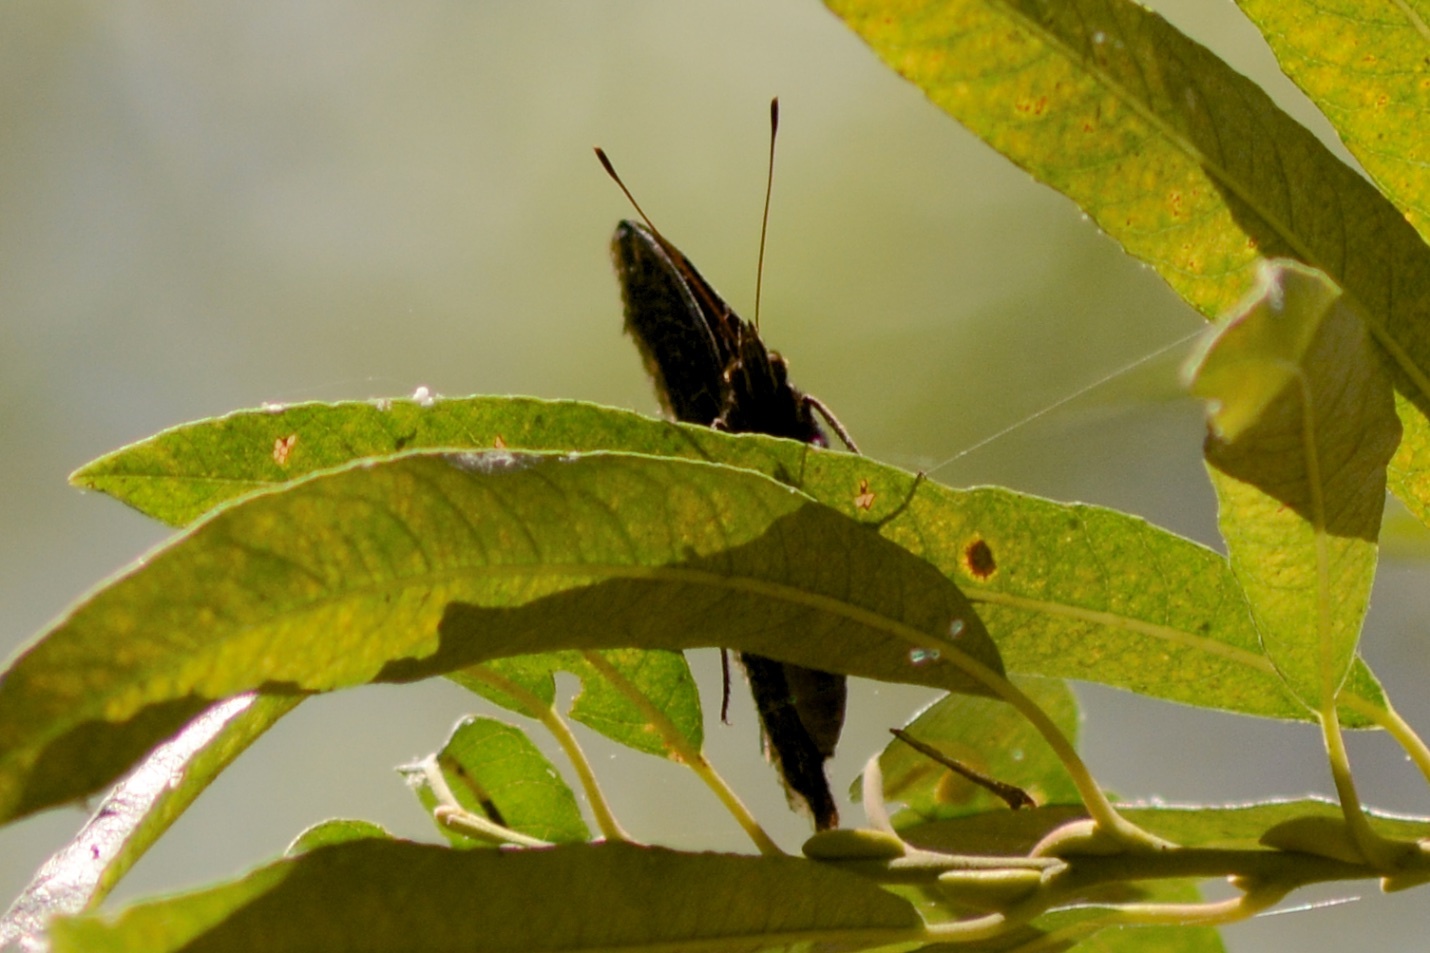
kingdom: Animalia
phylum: Arthropoda
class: Insecta
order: Lepidoptera
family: Nymphalidae
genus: Nymphalis
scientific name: Nymphalis antiopa
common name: Camberwell beauty
